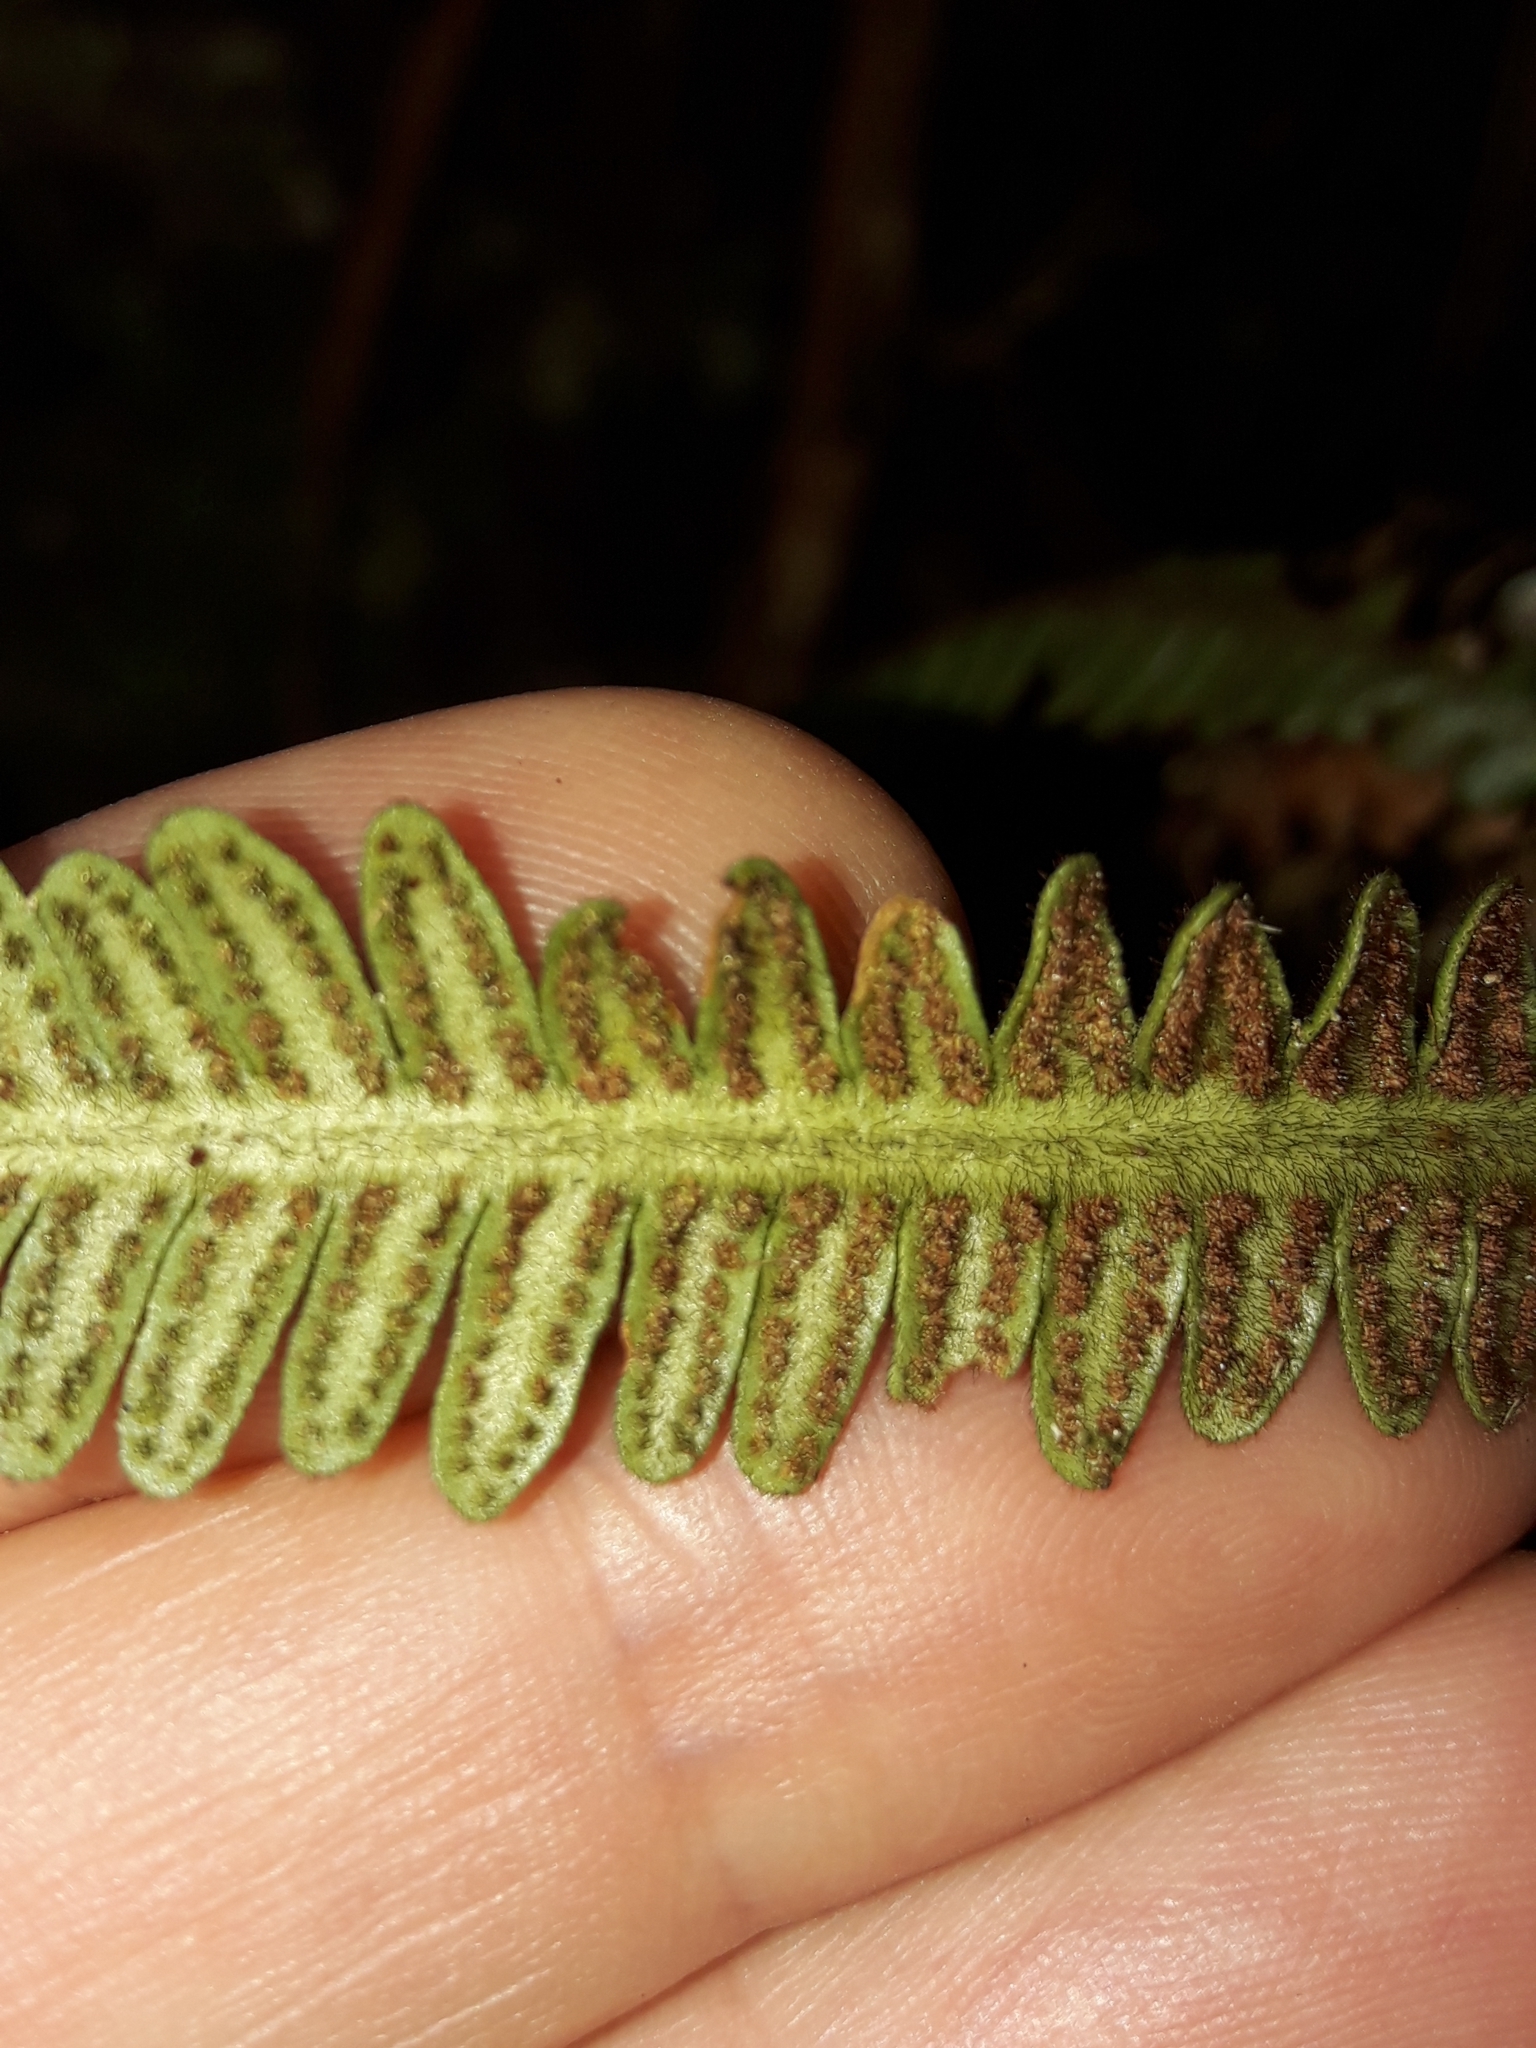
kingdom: Plantae
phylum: Tracheophyta
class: Polypodiopsida
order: Polypodiales
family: Polypodiaceae
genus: Dasygrammitis
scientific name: Dasygrammitis crassifrons
